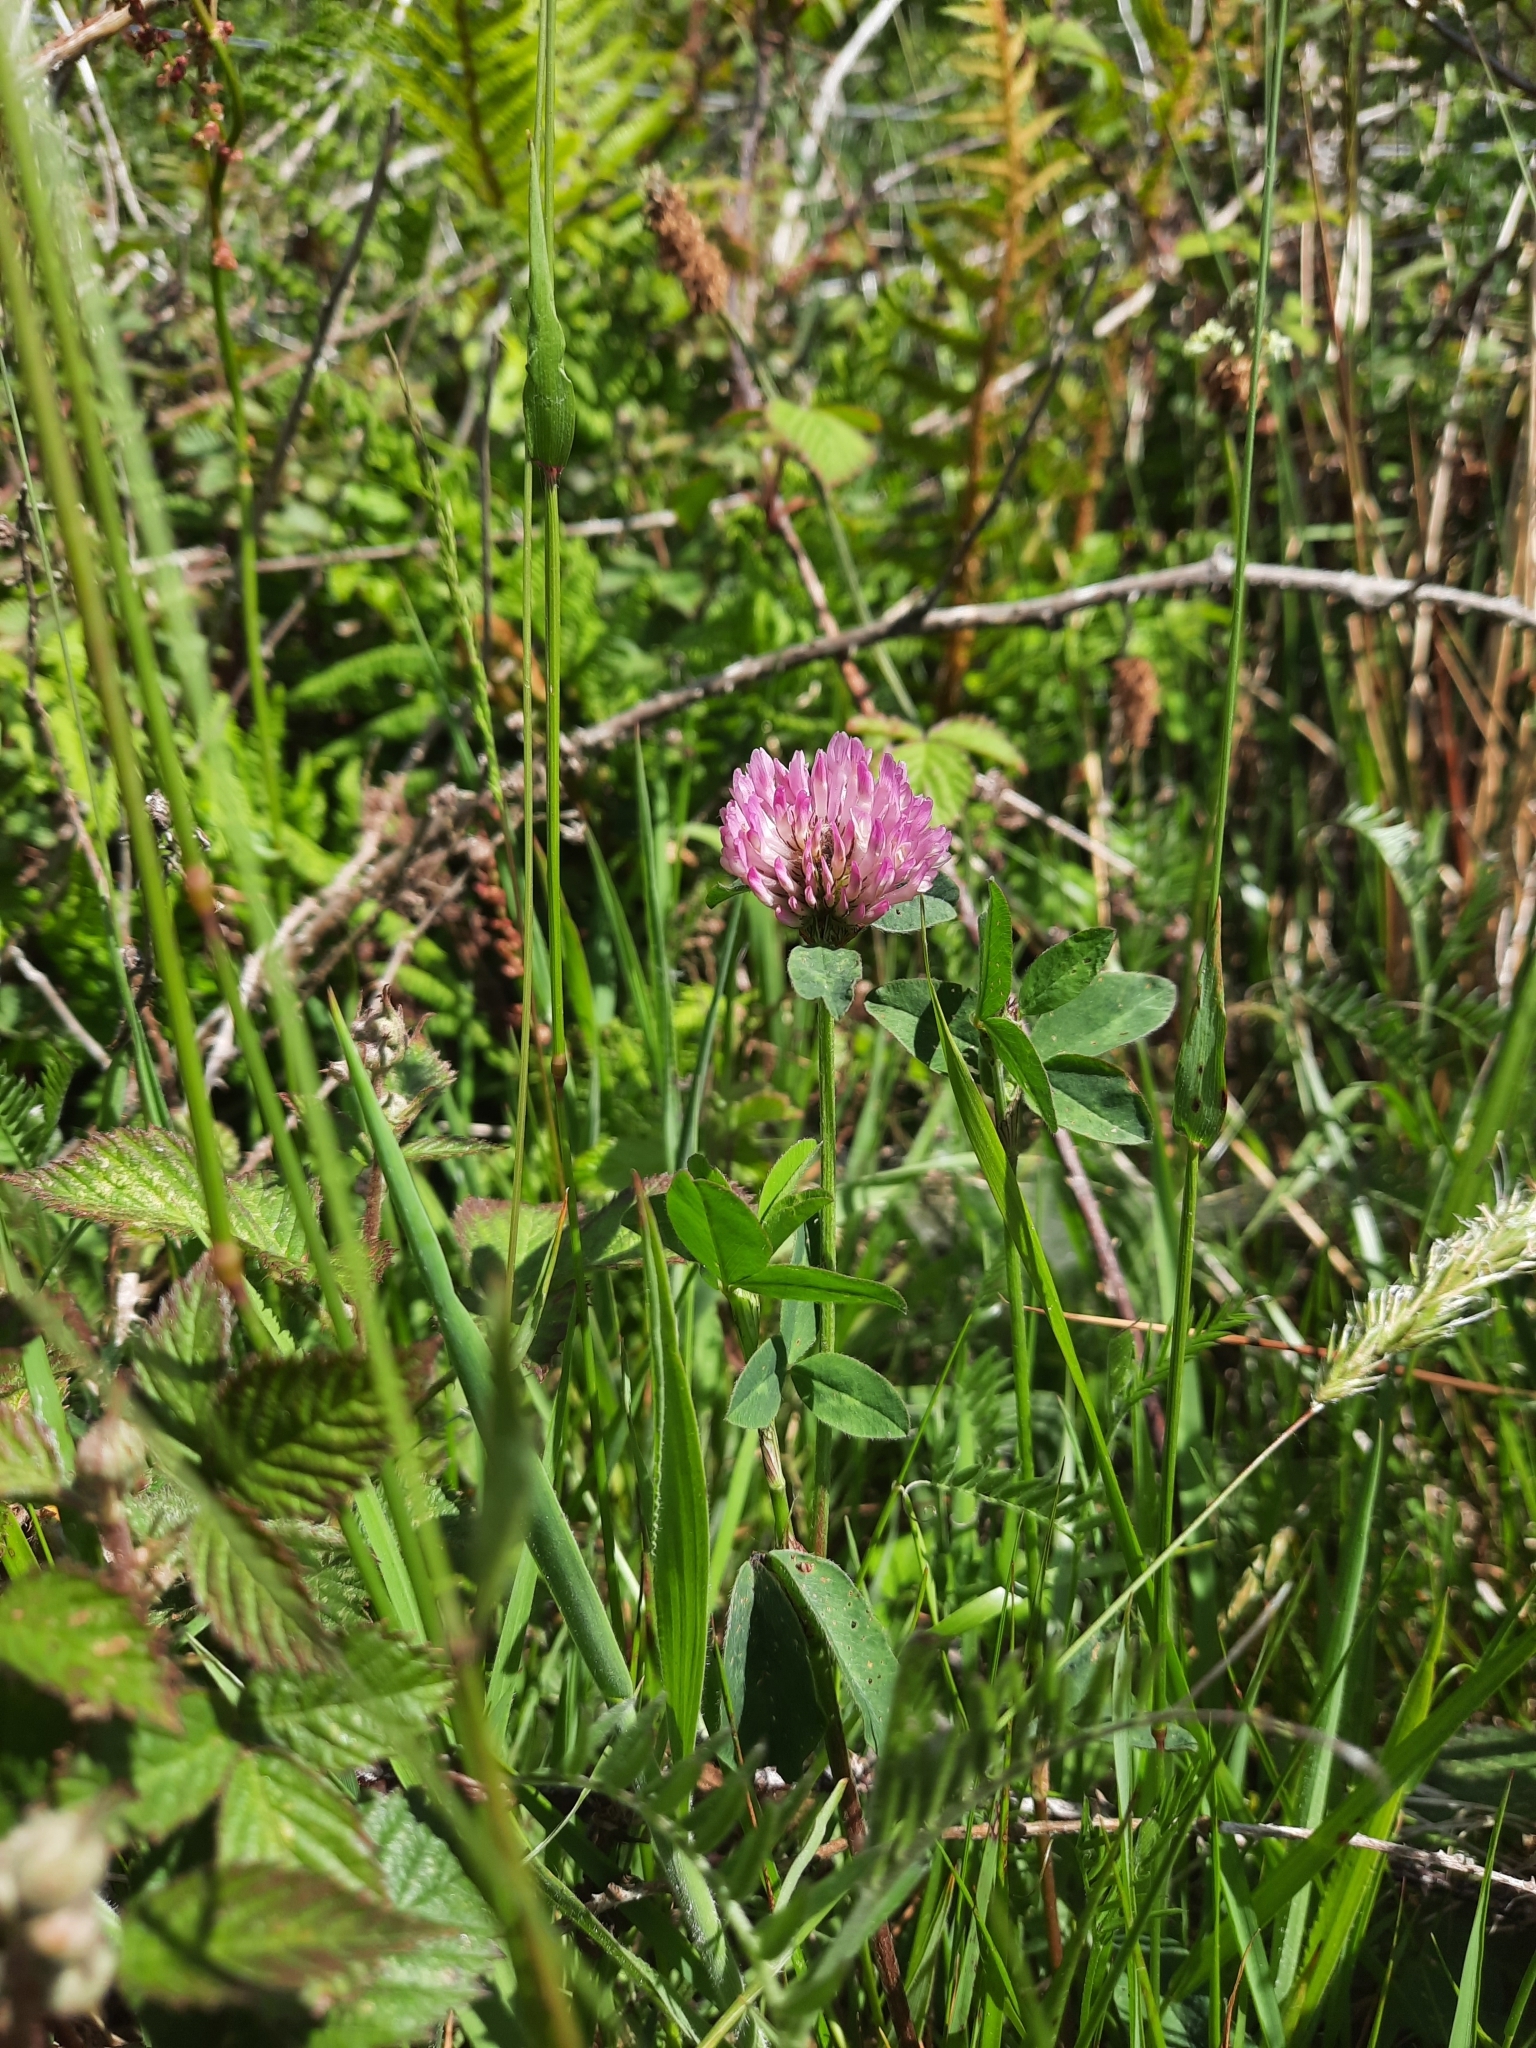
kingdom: Plantae
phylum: Tracheophyta
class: Magnoliopsida
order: Fabales
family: Fabaceae
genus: Trifolium
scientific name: Trifolium pratense
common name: Red clover
